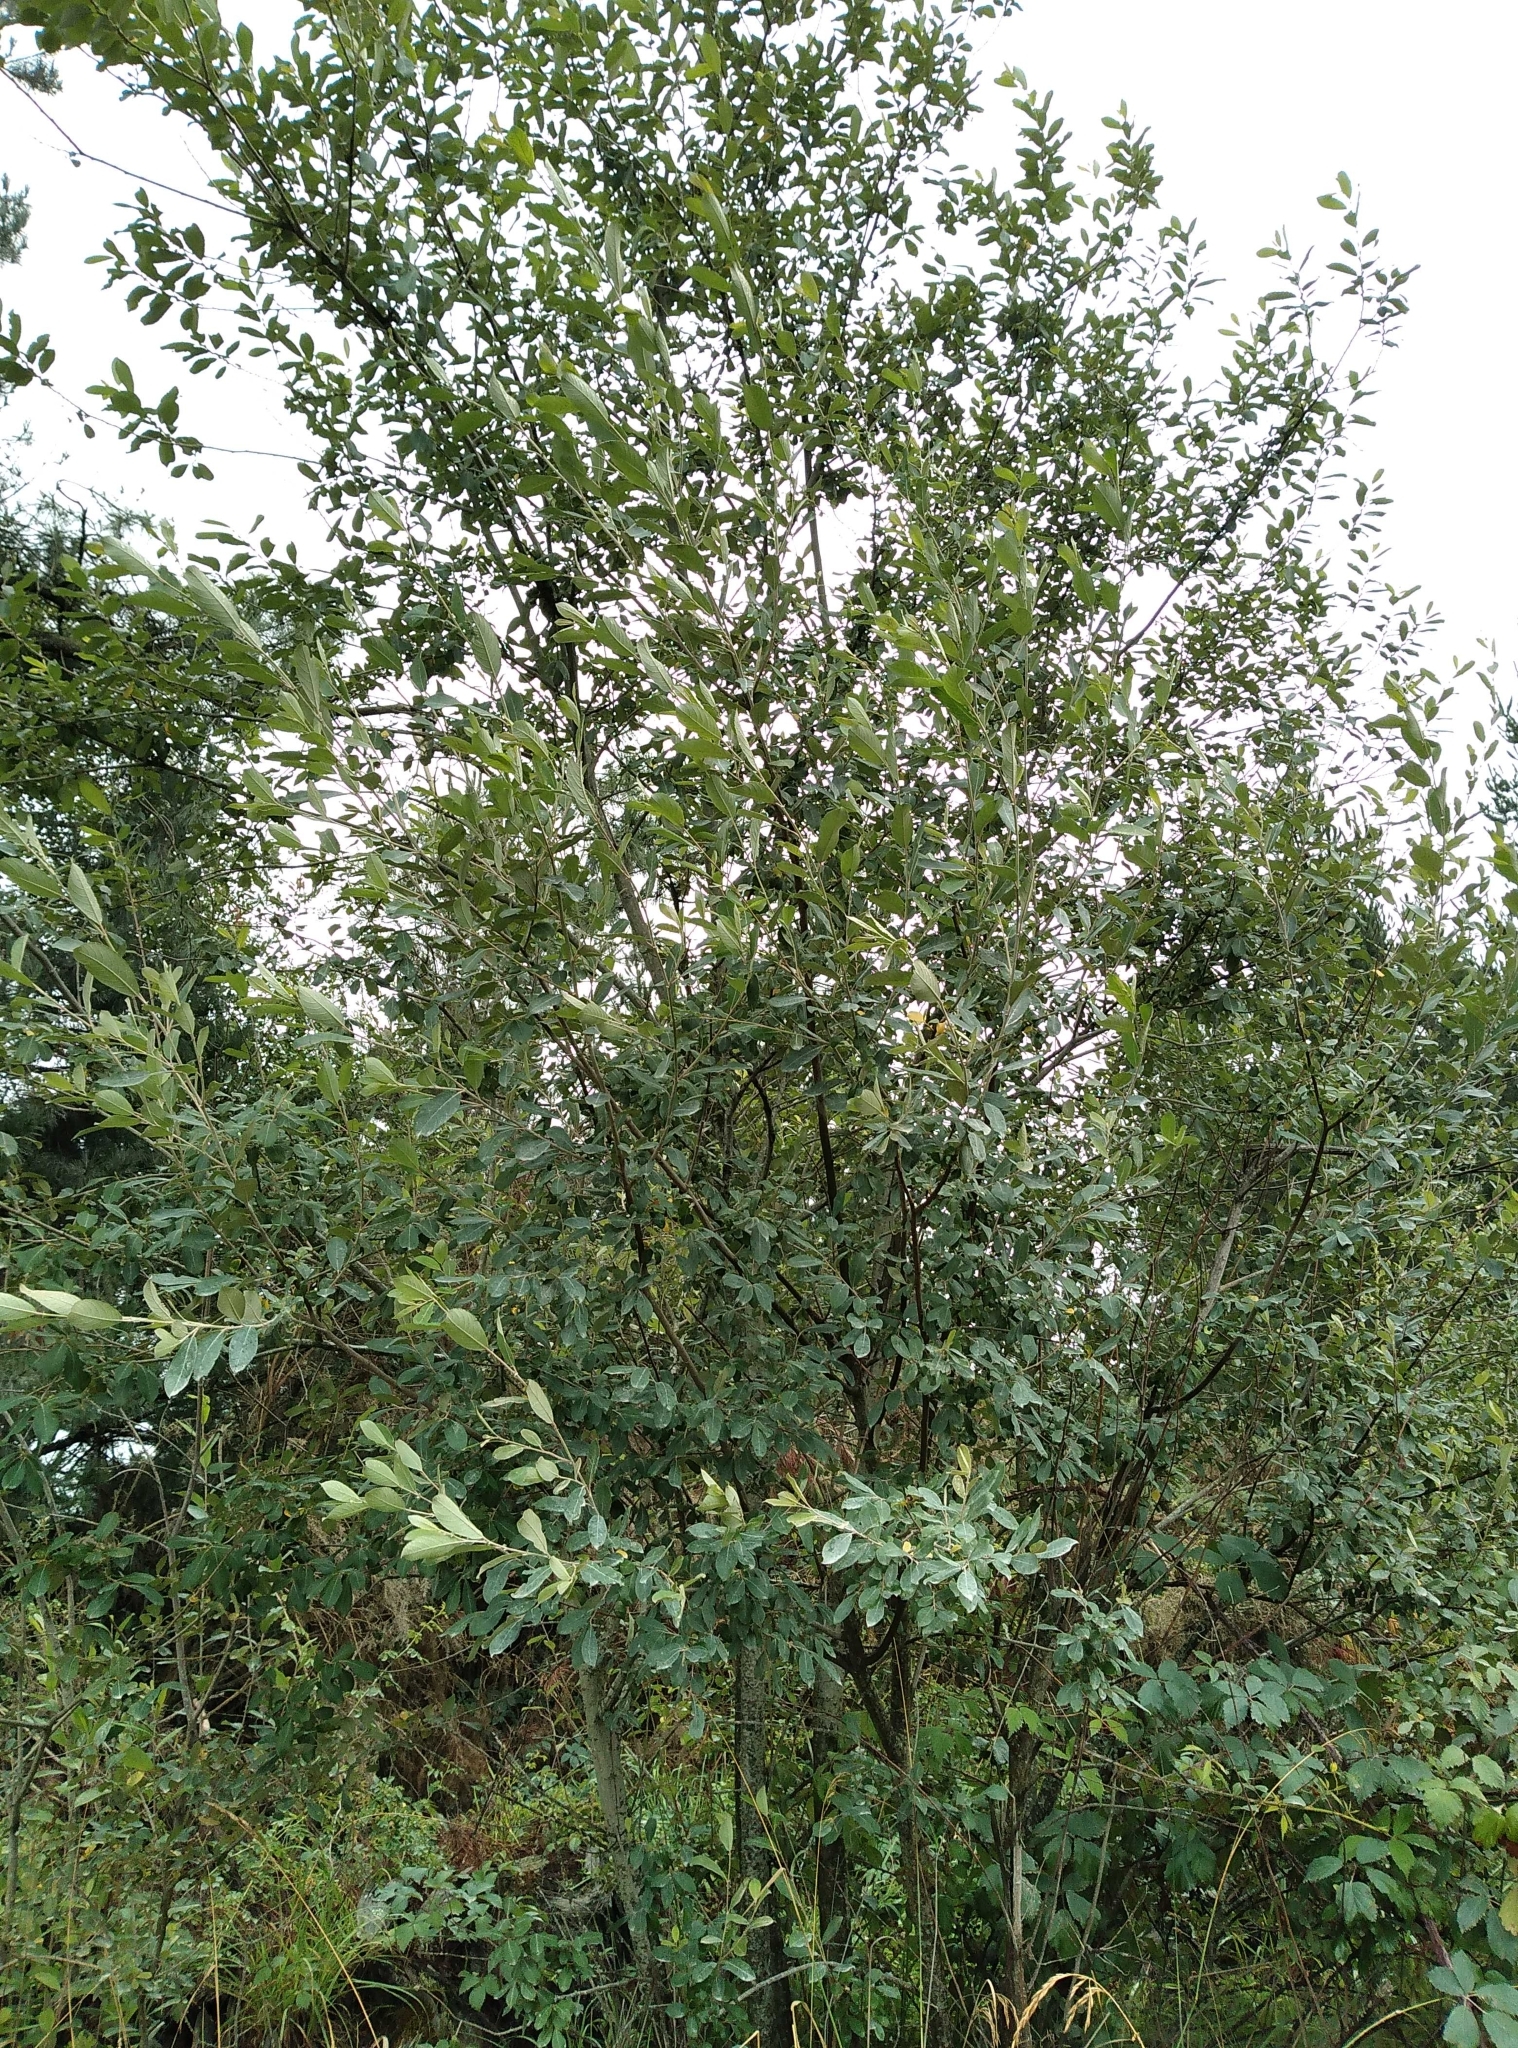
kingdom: Plantae
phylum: Tracheophyta
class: Magnoliopsida
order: Malpighiales
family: Salicaceae
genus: Salix
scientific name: Salix cinerea
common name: Common sallow
